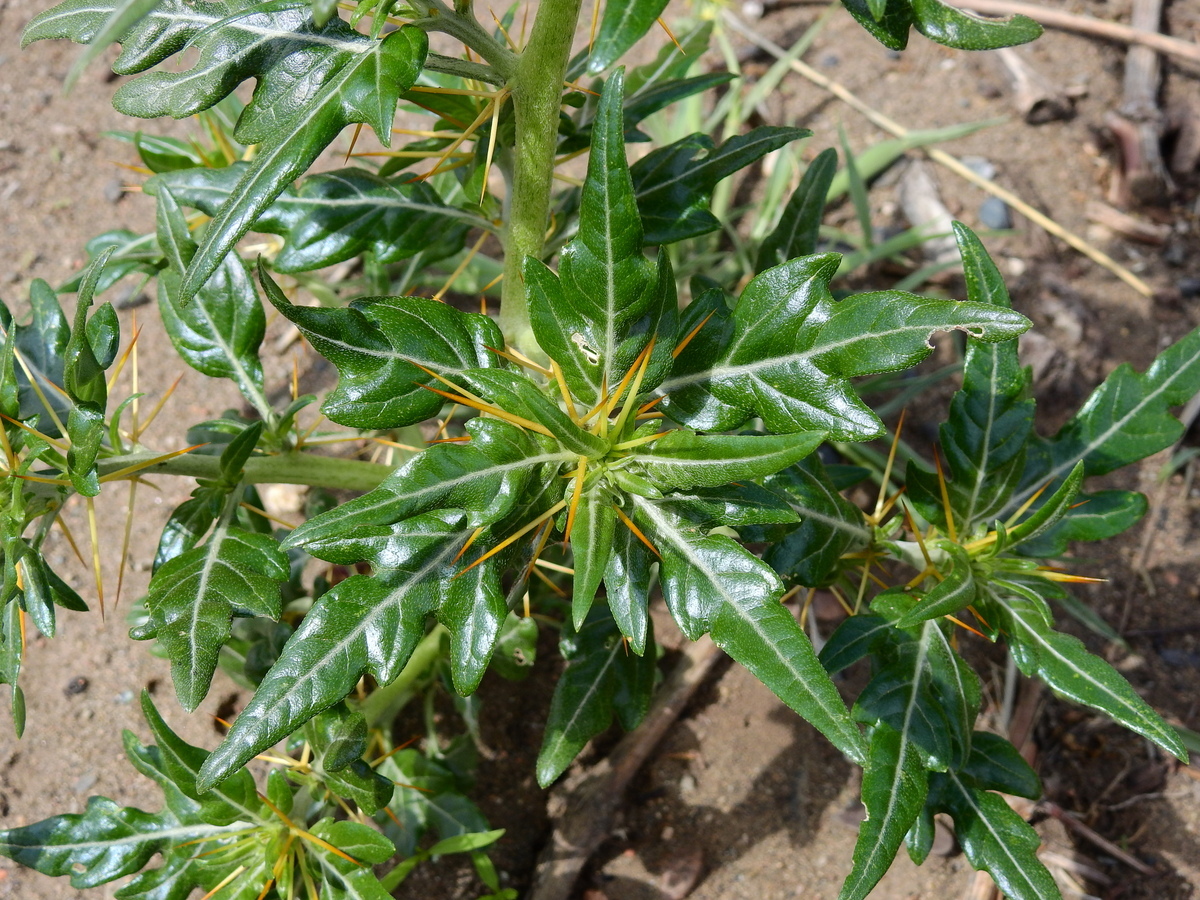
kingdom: Plantae
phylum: Tracheophyta
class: Magnoliopsida
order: Asterales
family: Asteraceae
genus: Xanthium
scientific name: Xanthium spinosum
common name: Spiny cocklebur
